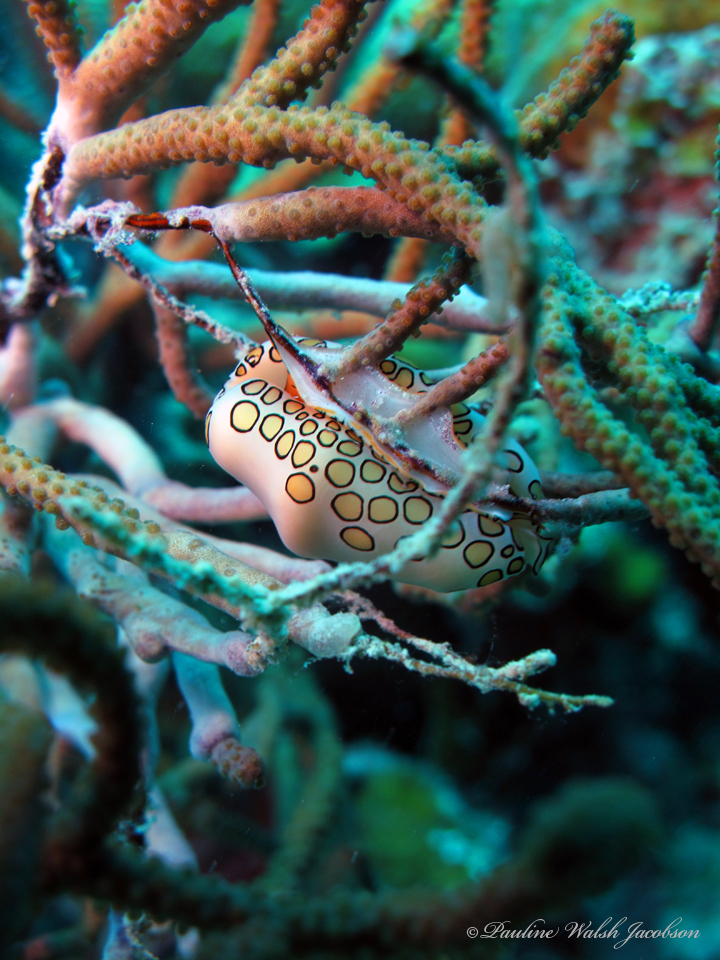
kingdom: Animalia
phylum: Mollusca
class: Gastropoda
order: Littorinimorpha
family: Ovulidae
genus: Cyphoma
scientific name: Cyphoma gibbosum
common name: Flamingo tongue
